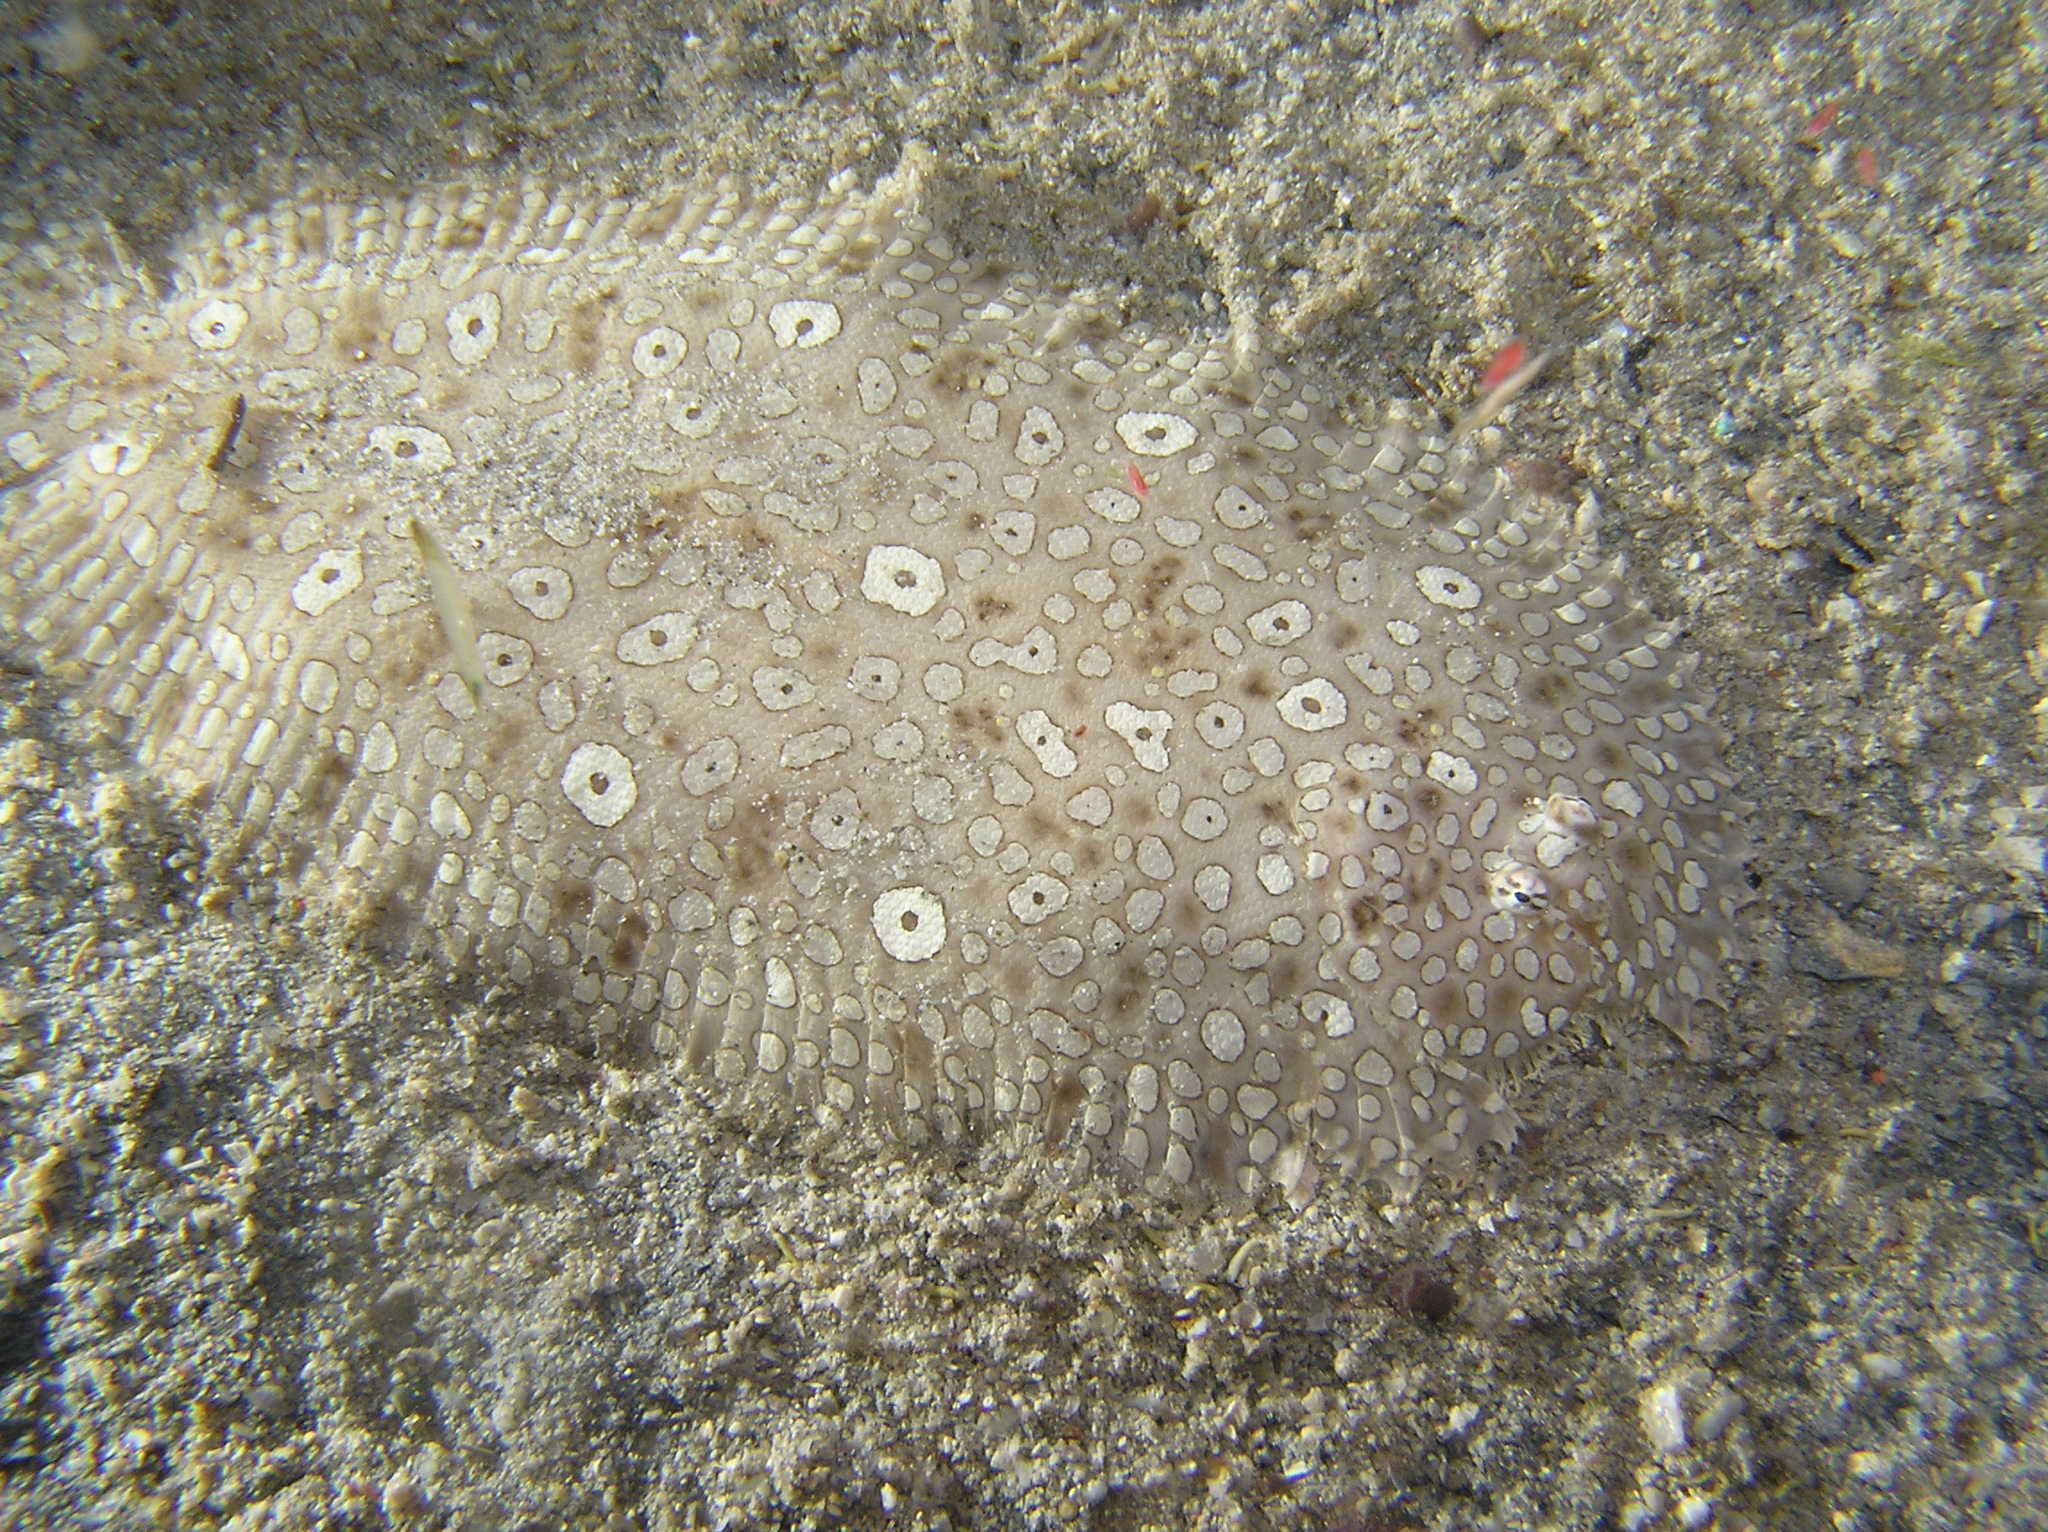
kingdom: Animalia
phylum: Chordata
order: Pleuronectiformes
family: Soleidae
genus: Pardachirus
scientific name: Pardachirus pavoninus
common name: Ocellated sole
